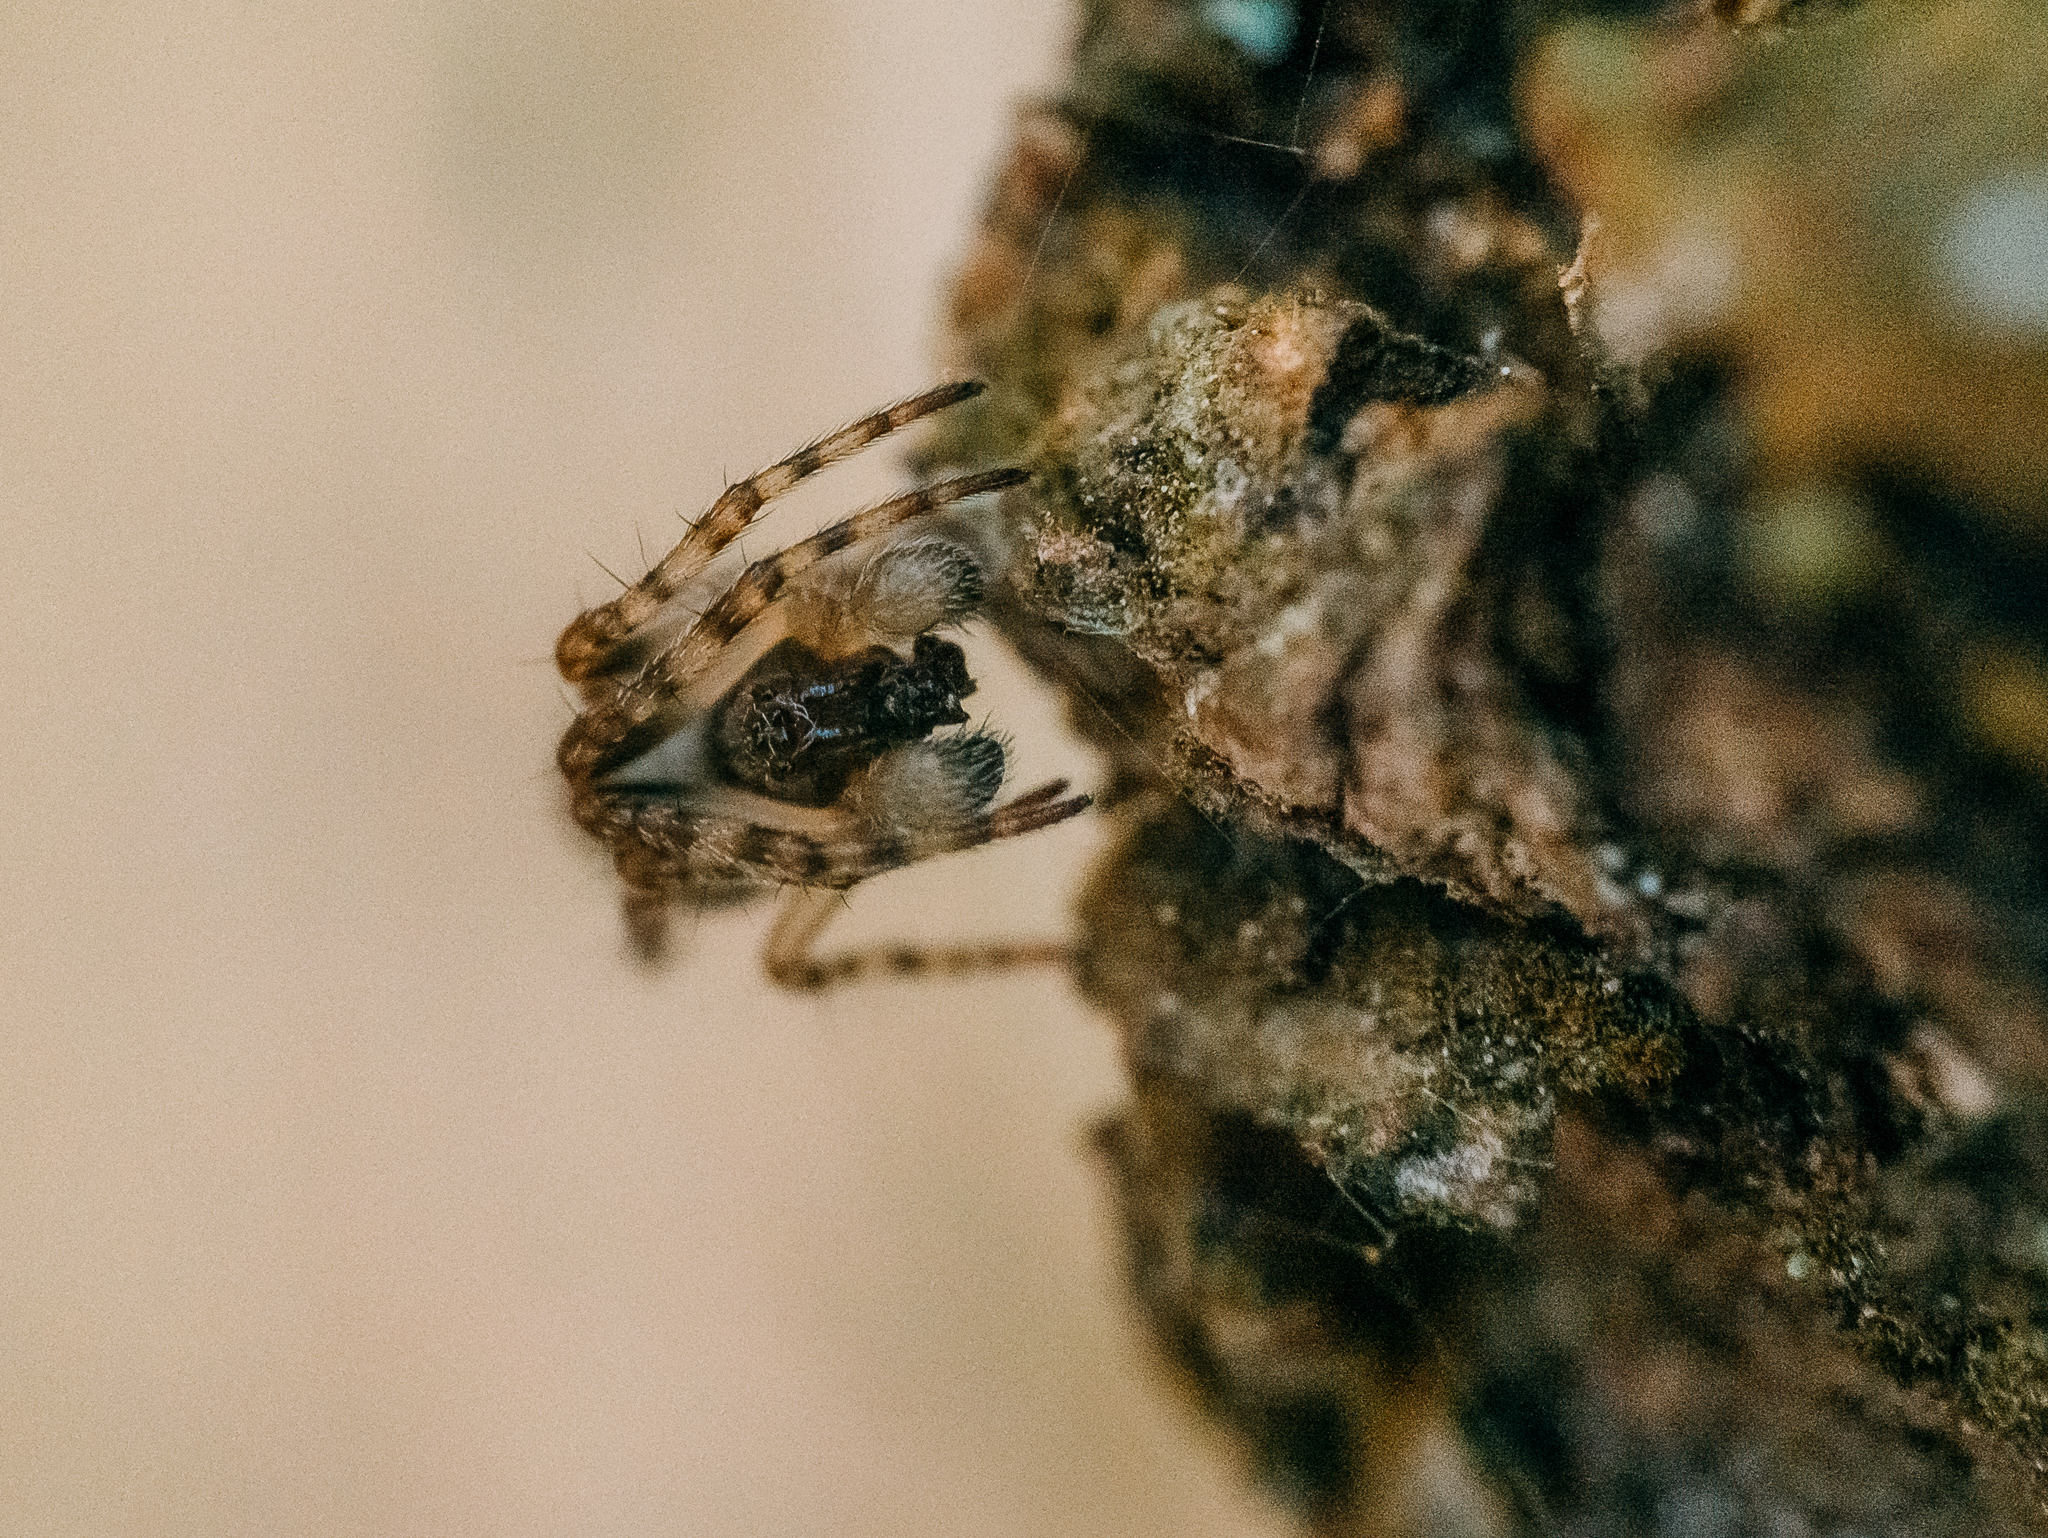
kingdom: Animalia
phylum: Arthropoda
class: Arachnida
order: Araneae
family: Araneidae
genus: Cyclosa
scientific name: Cyclosa conica
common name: Conical trashline orbweaver
